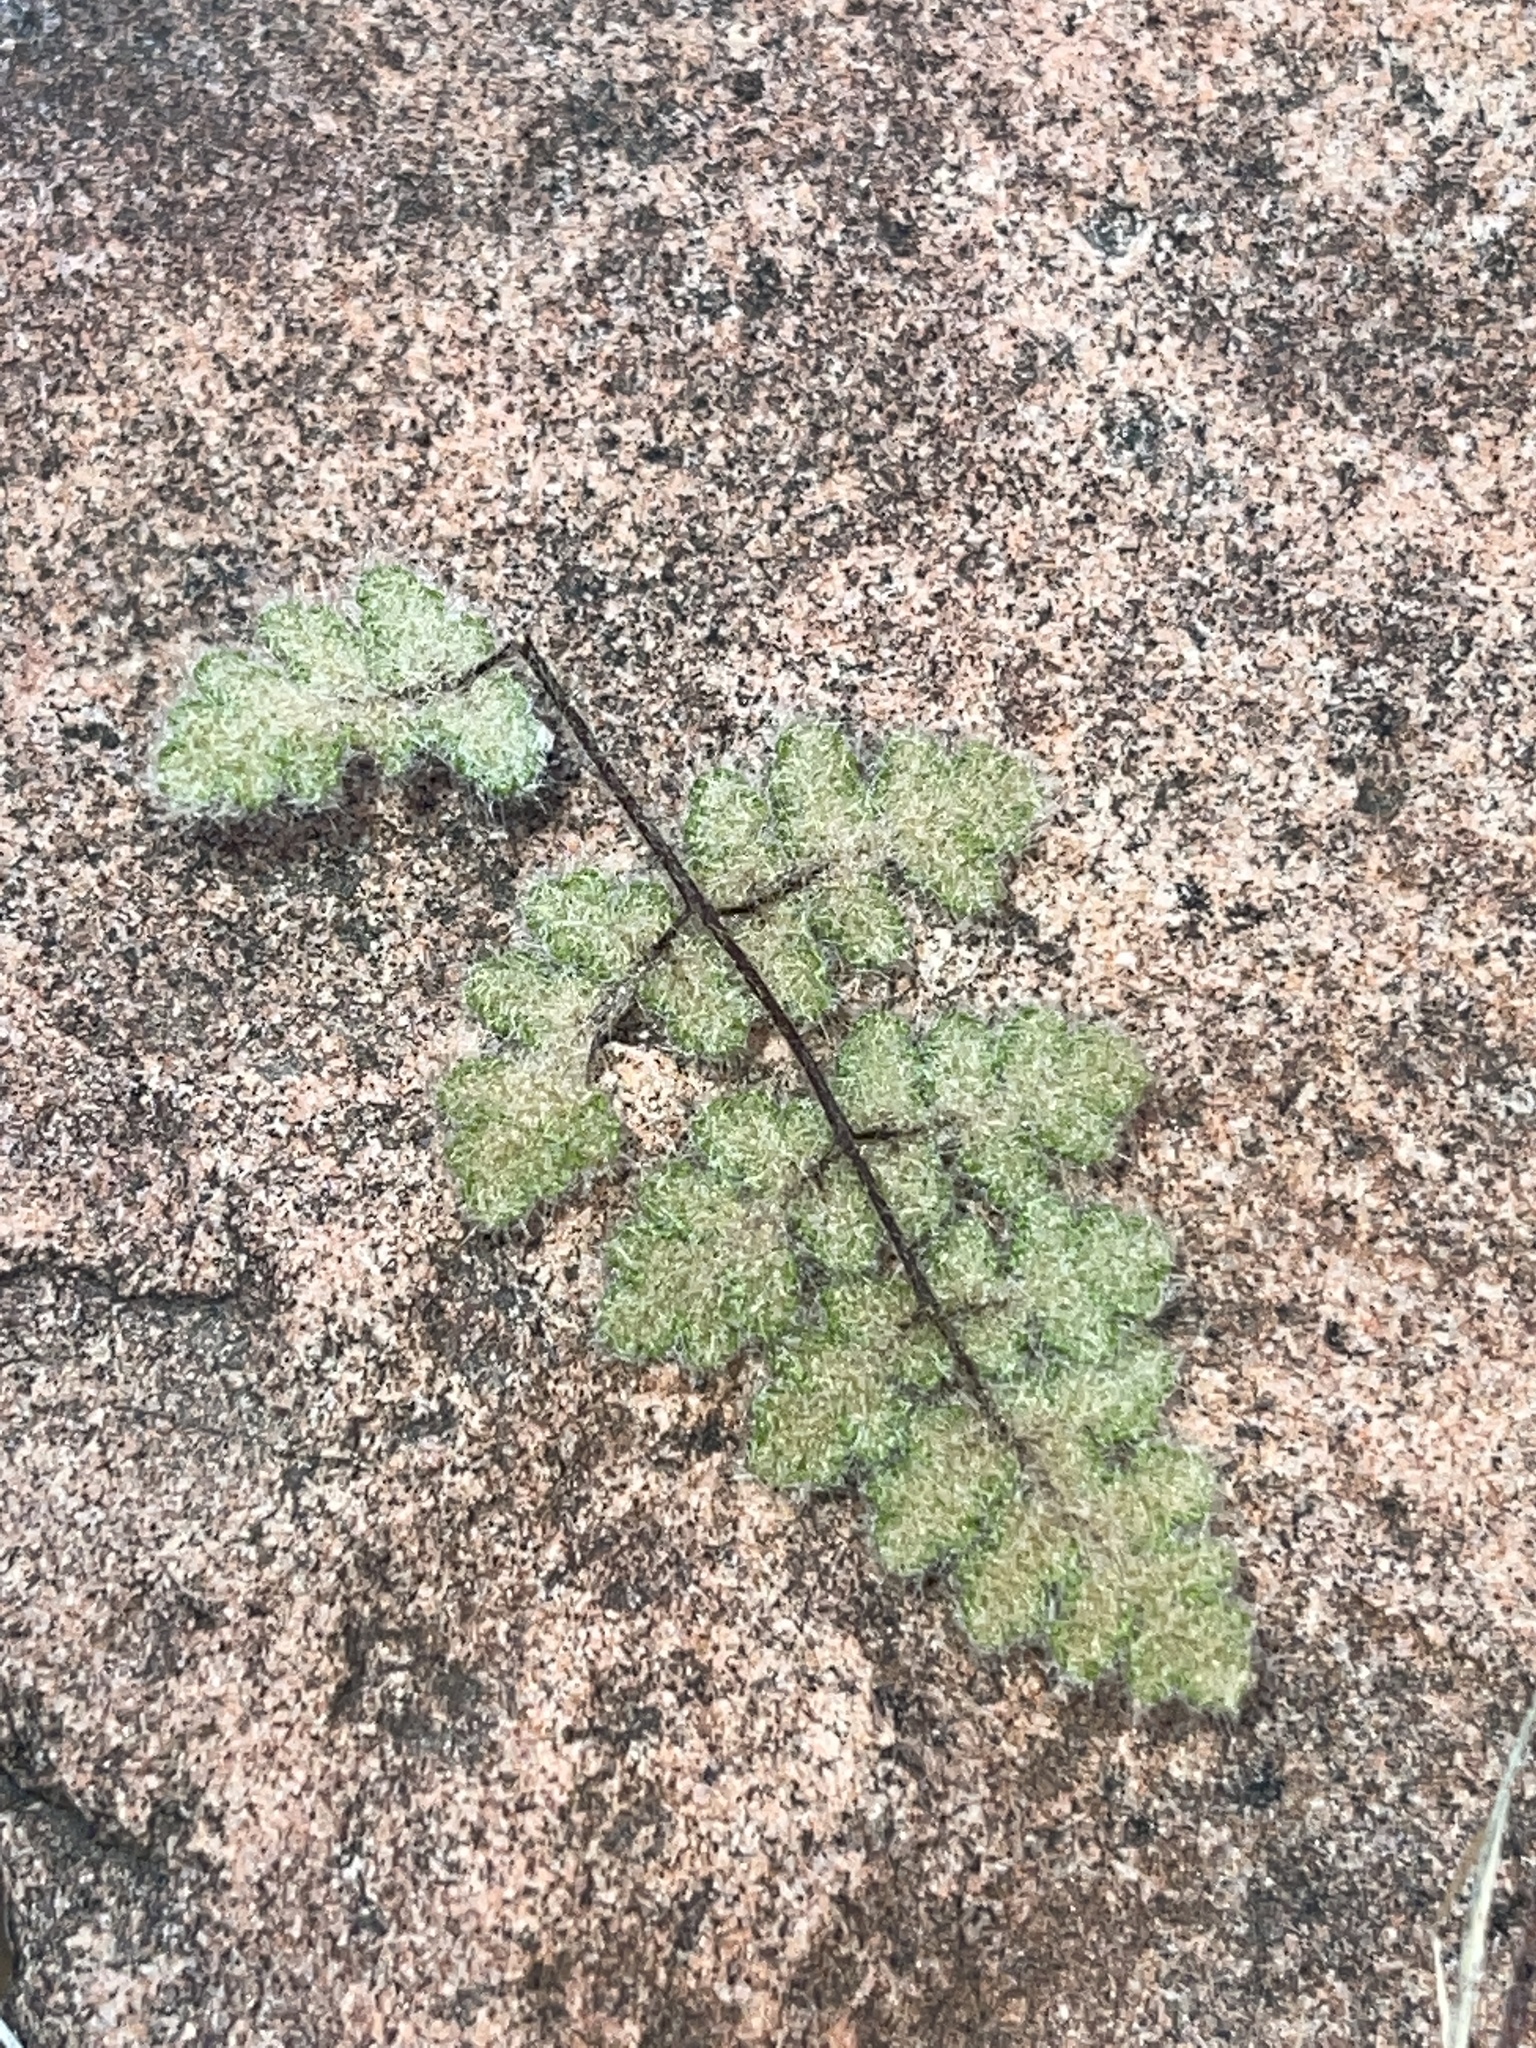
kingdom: Plantae
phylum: Tracheophyta
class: Polypodiopsida
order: Polypodiales
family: Pteridaceae
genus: Myriopteris
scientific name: Myriopteris parryi
